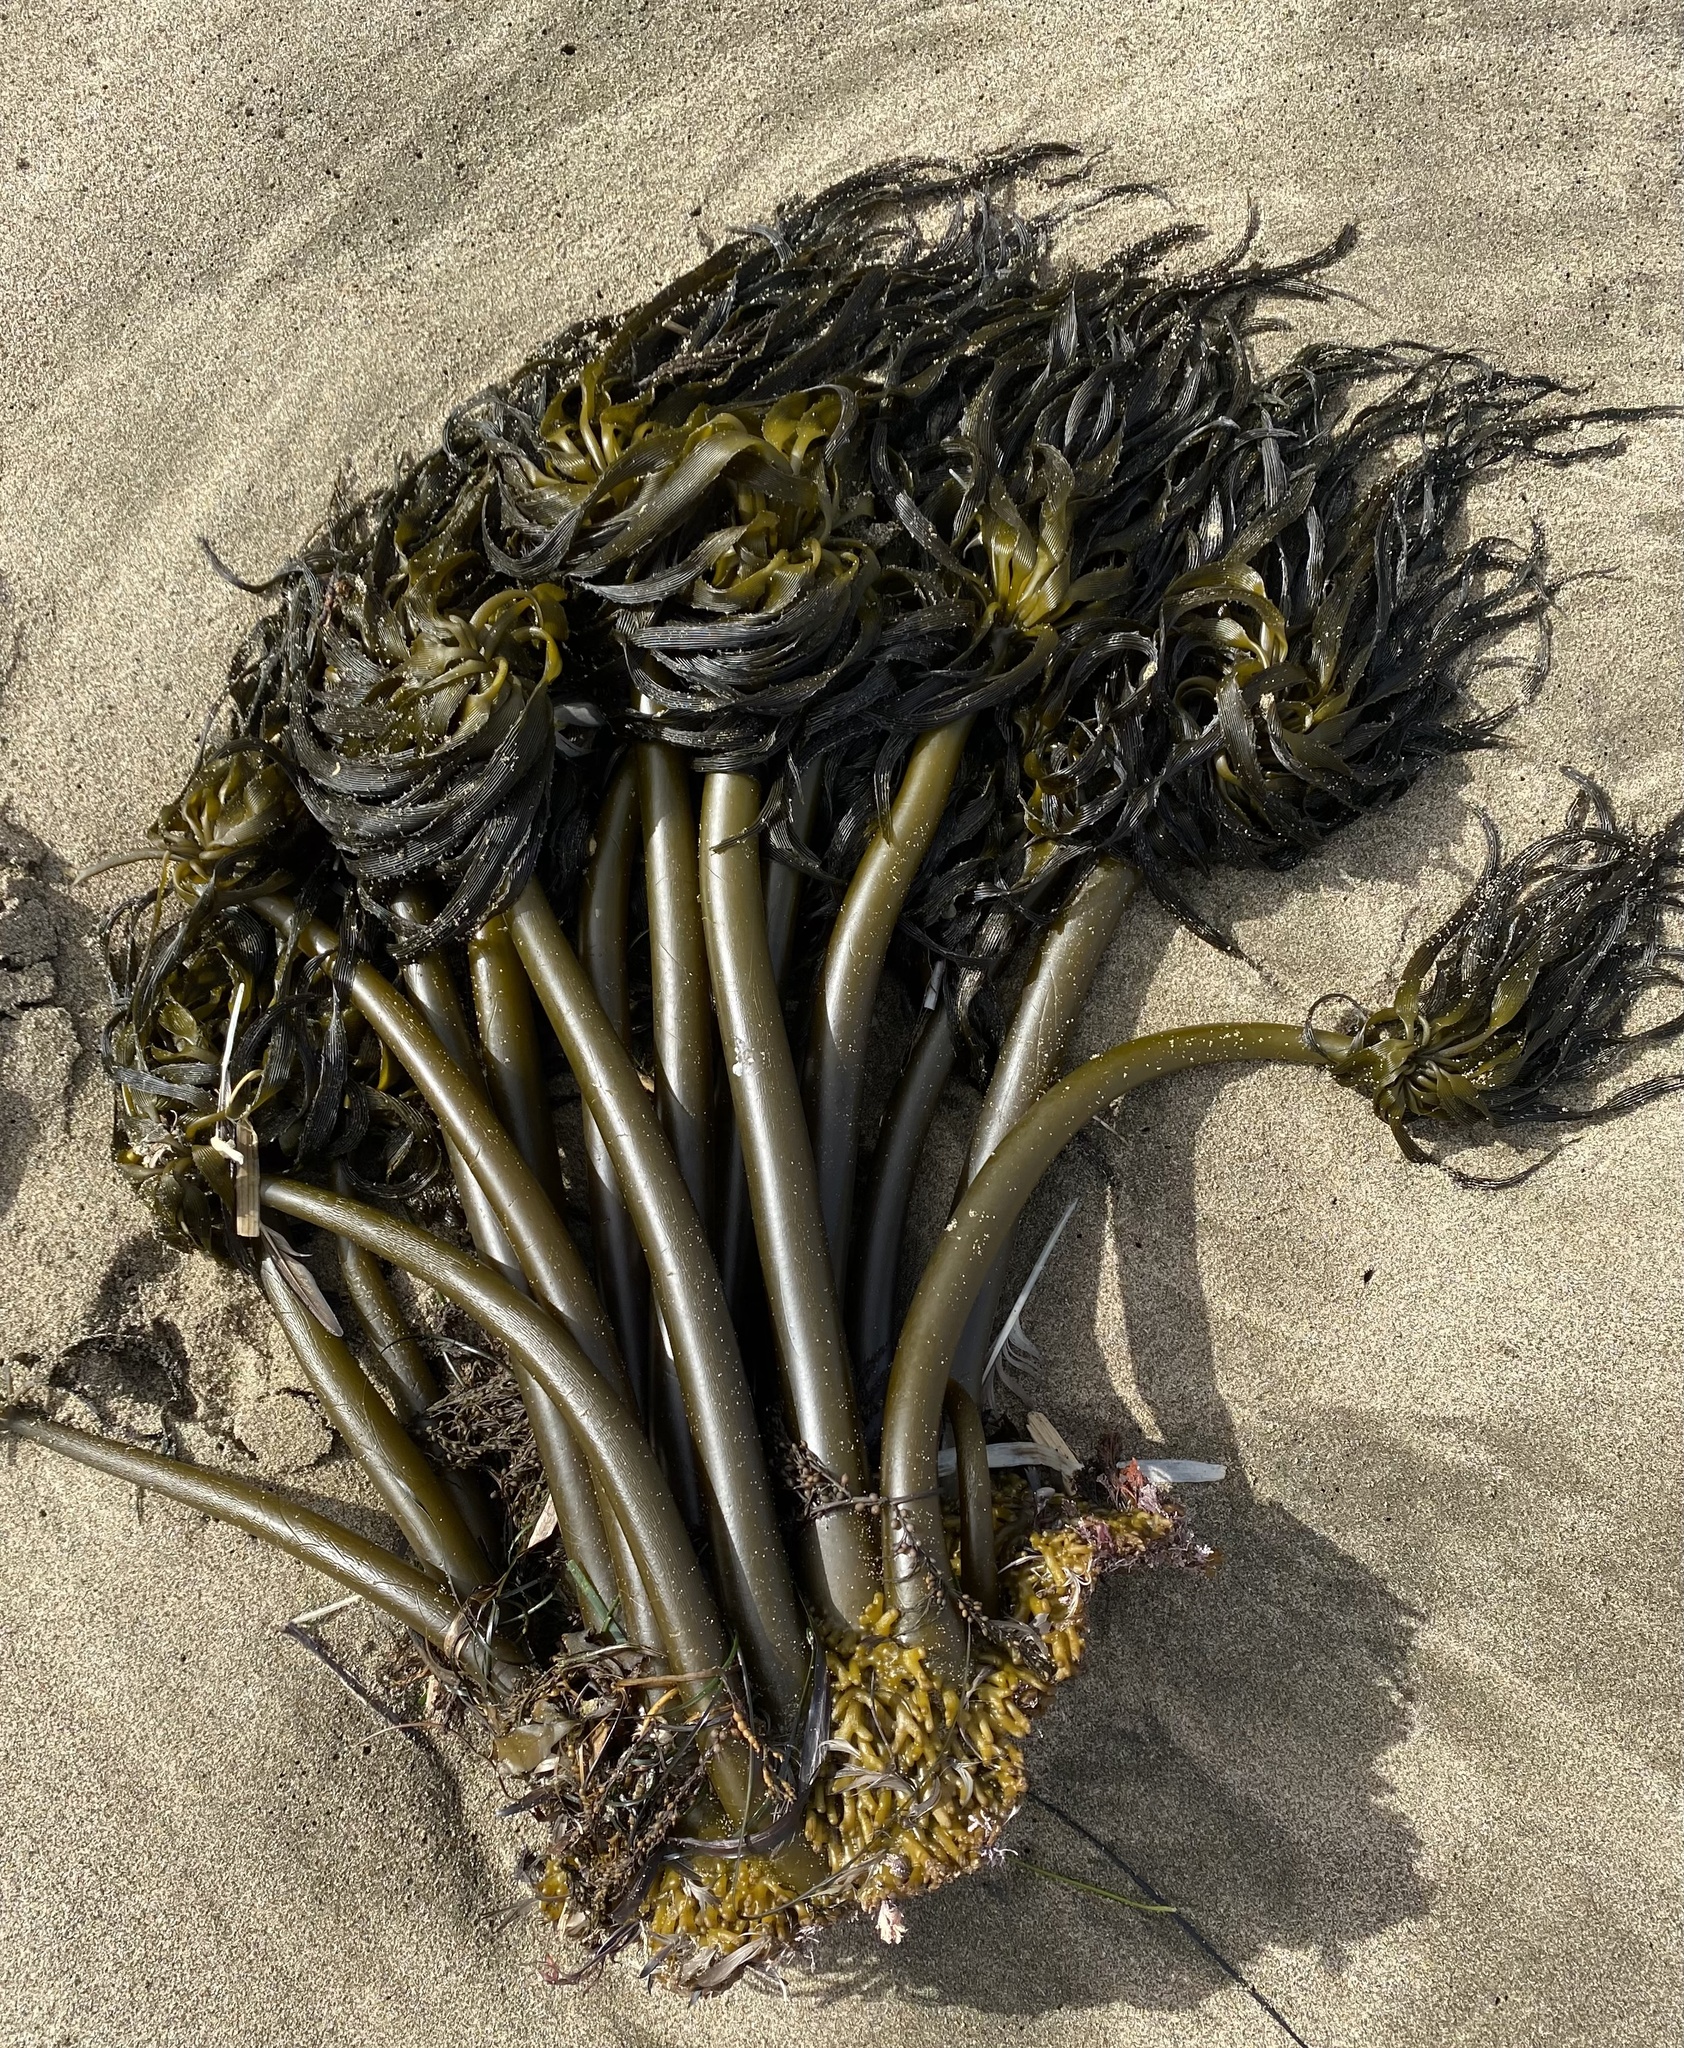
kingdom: Chromista
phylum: Ochrophyta
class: Phaeophyceae
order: Laminariales
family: Laminariaceae
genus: Postelsia
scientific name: Postelsia palmiformis
